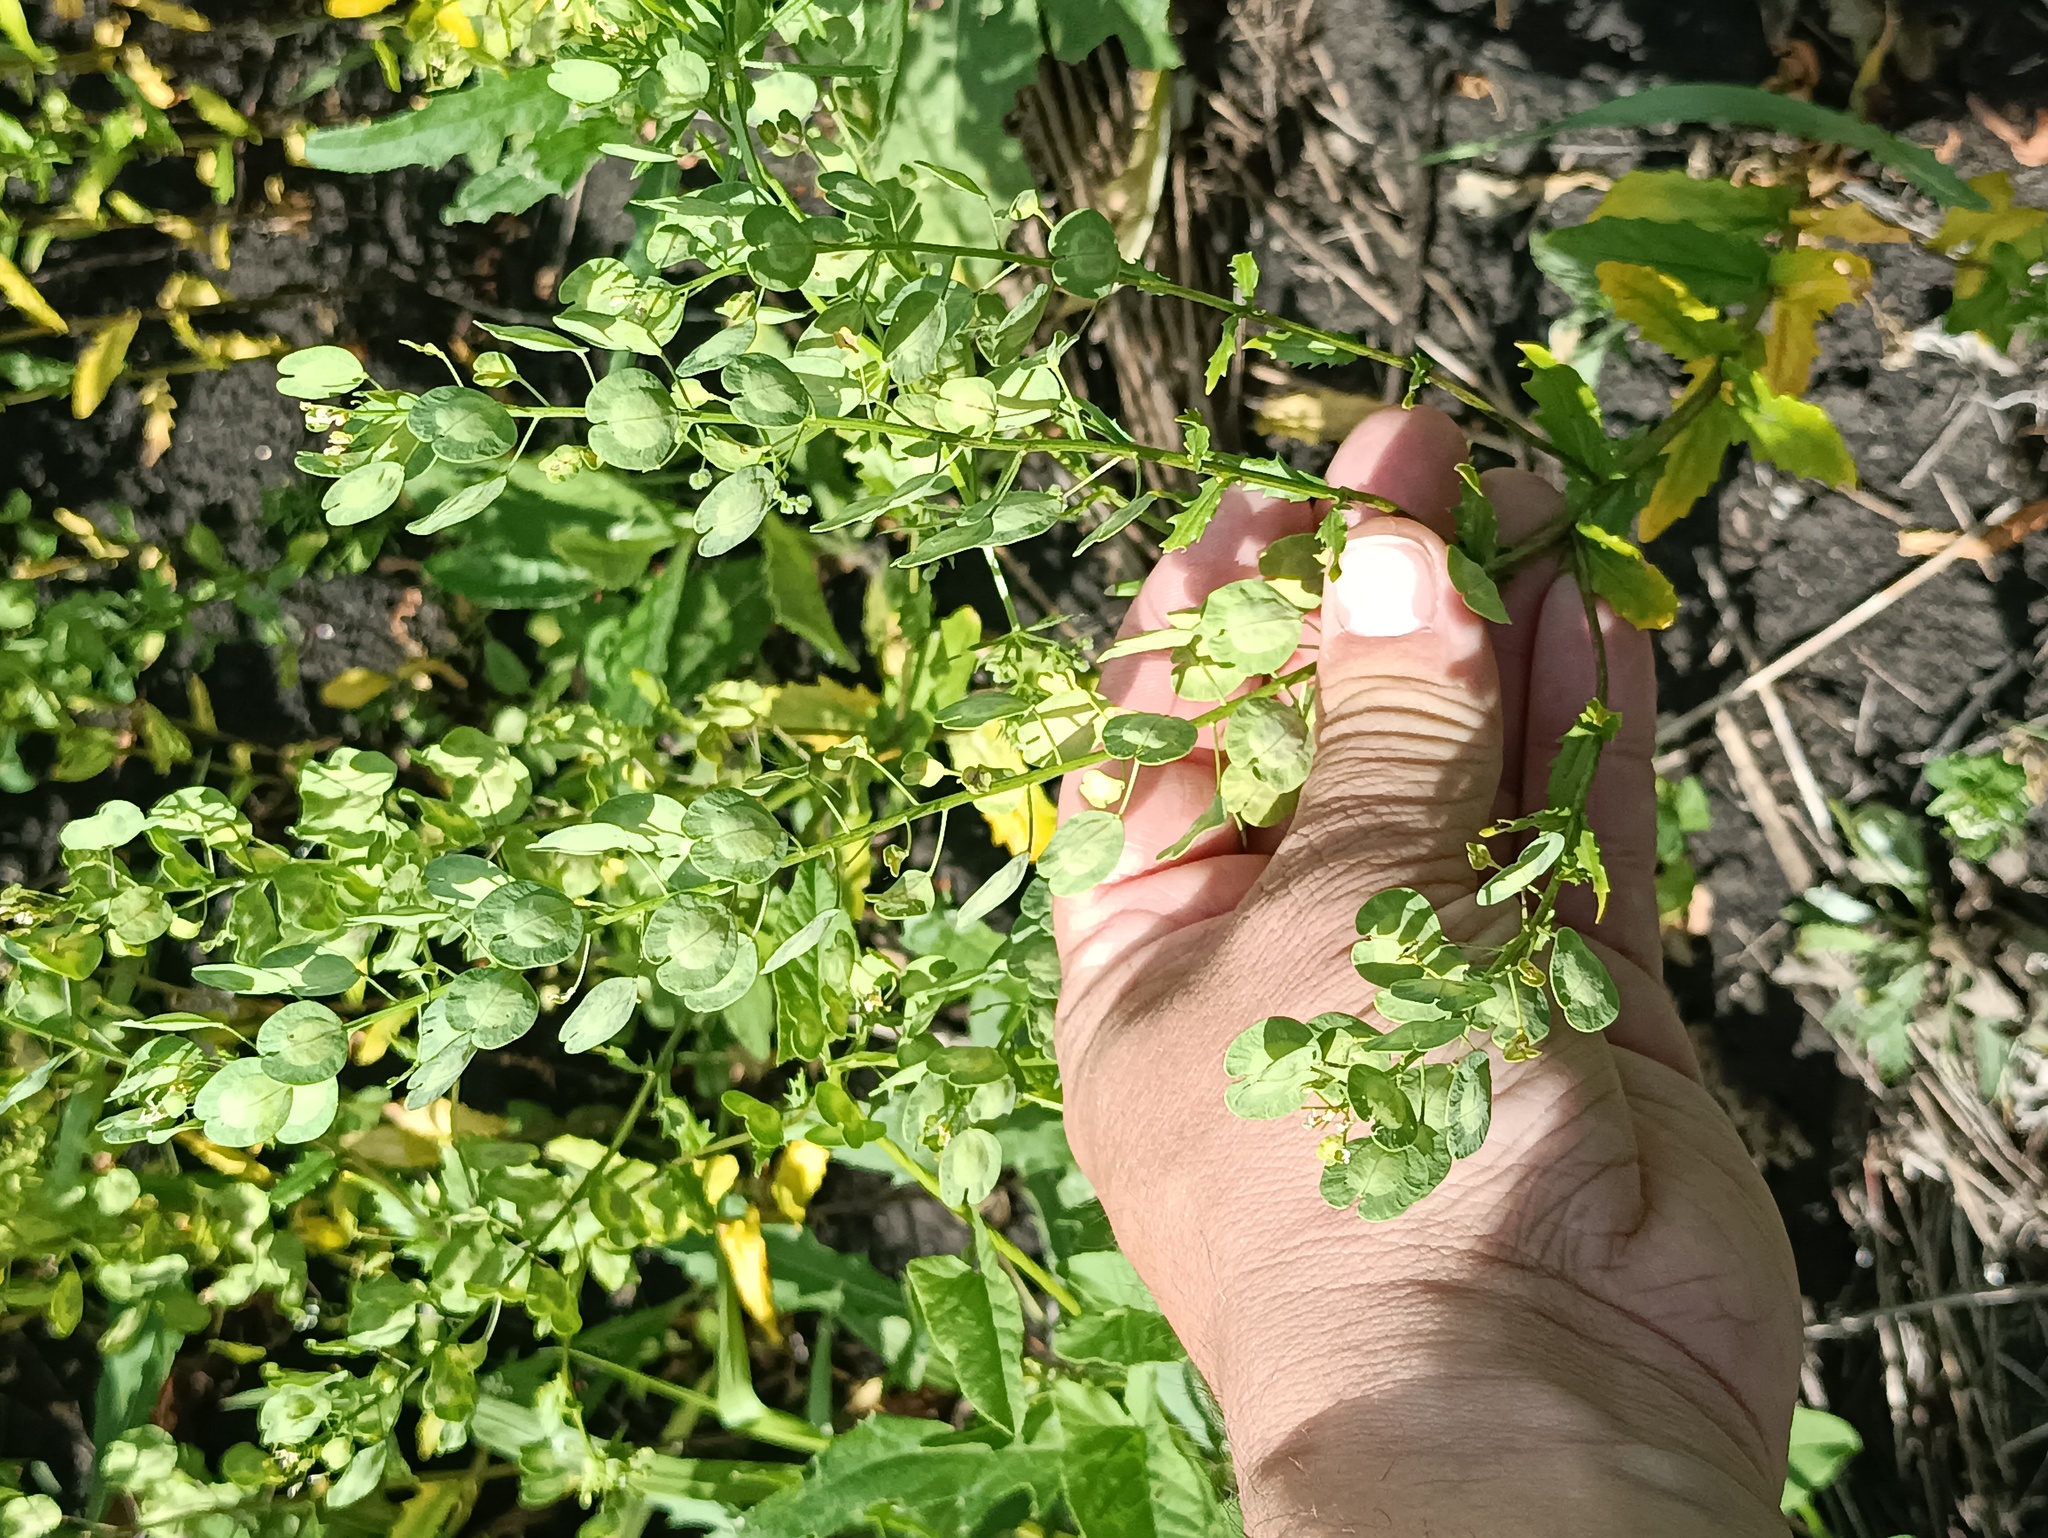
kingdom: Plantae
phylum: Tracheophyta
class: Magnoliopsida
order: Brassicales
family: Brassicaceae
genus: Thlaspi
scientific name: Thlaspi arvense
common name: Field pennycress
